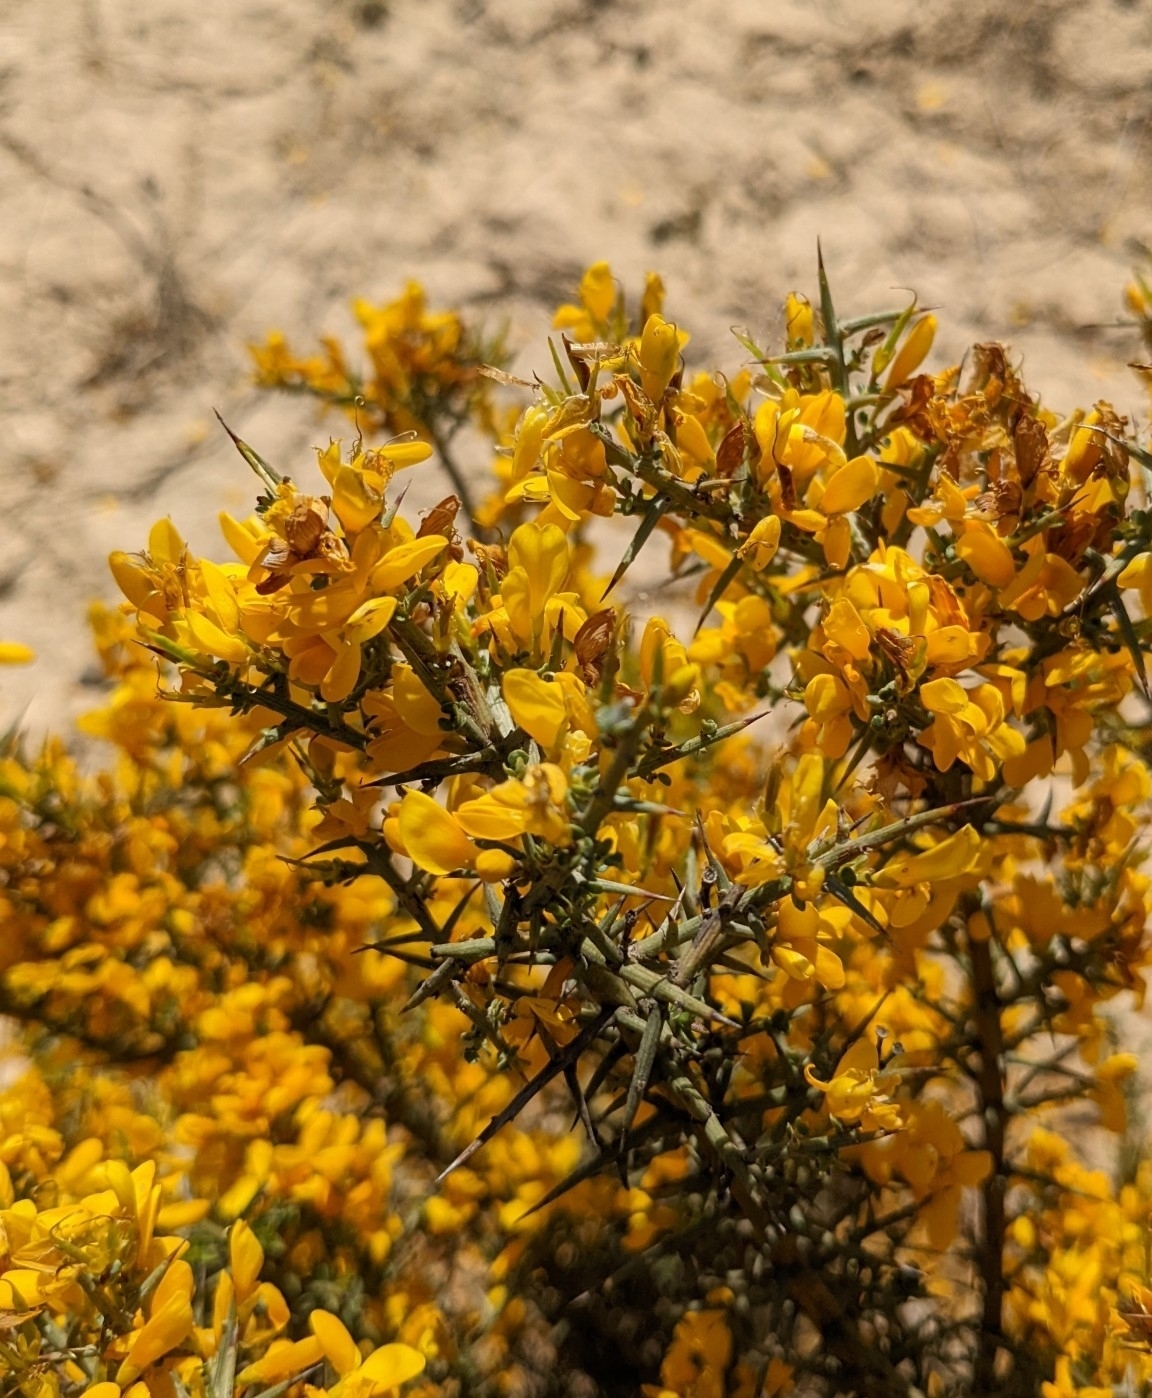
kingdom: Plantae
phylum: Tracheophyta
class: Magnoliopsida
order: Fabales
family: Fabaceae
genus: Genista
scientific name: Genista scorpius
